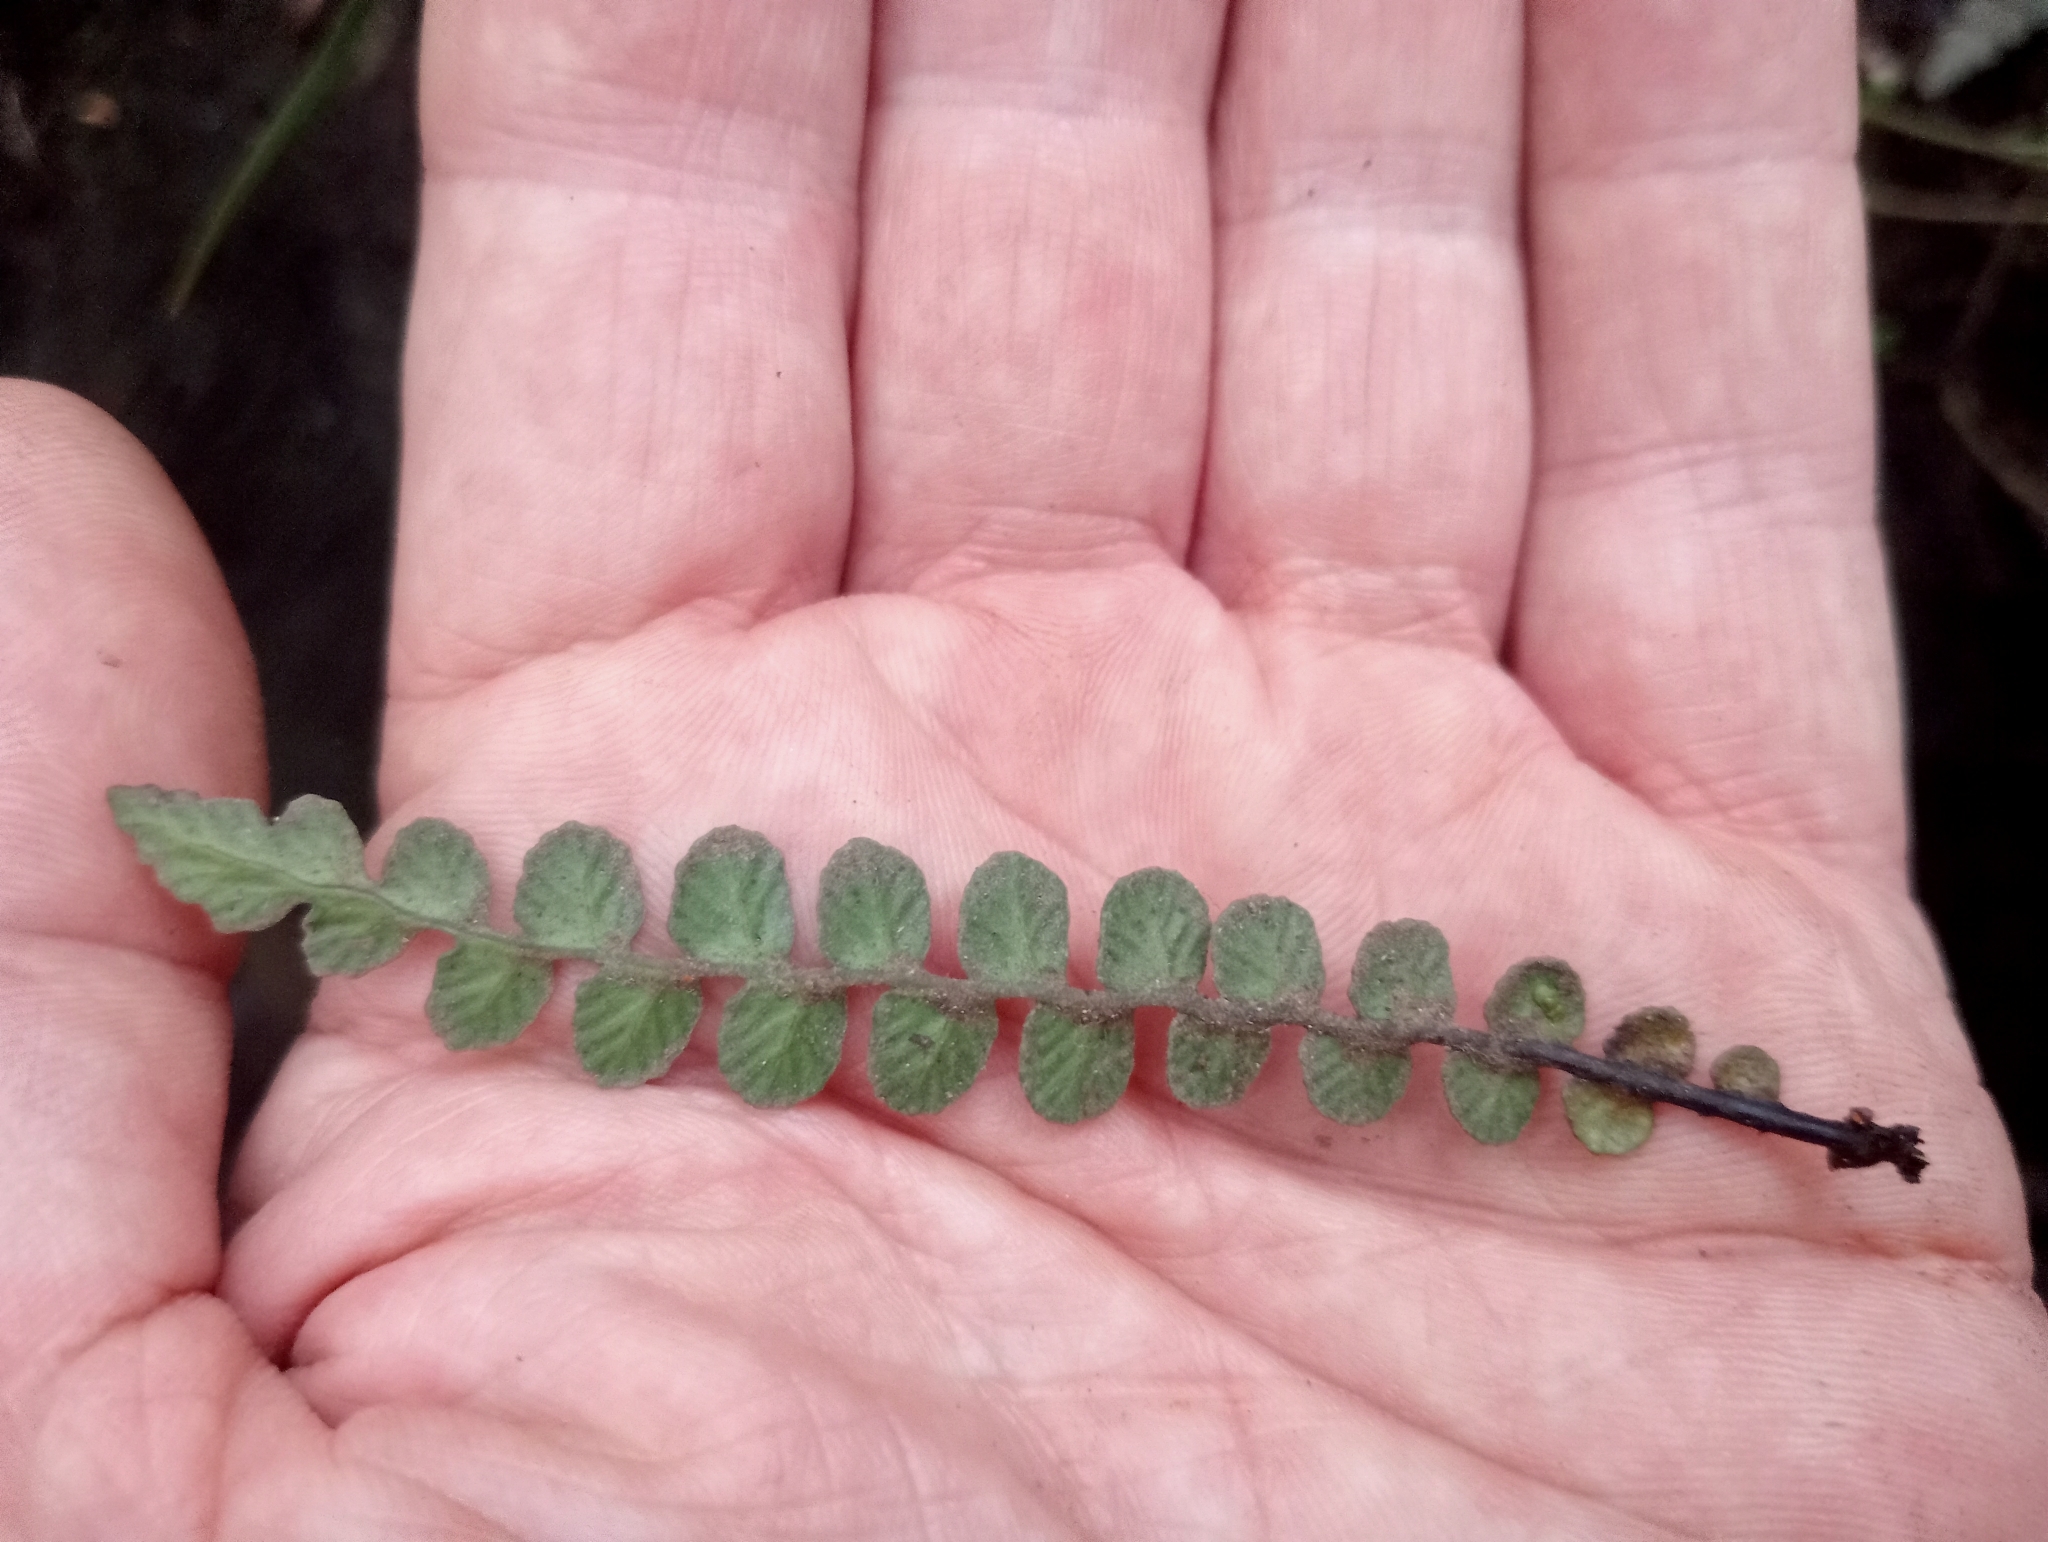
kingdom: Plantae
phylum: Tracheophyta
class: Polypodiopsida
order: Polypodiales
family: Blechnaceae
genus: Austroblechnum
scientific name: Austroblechnum membranaceum
